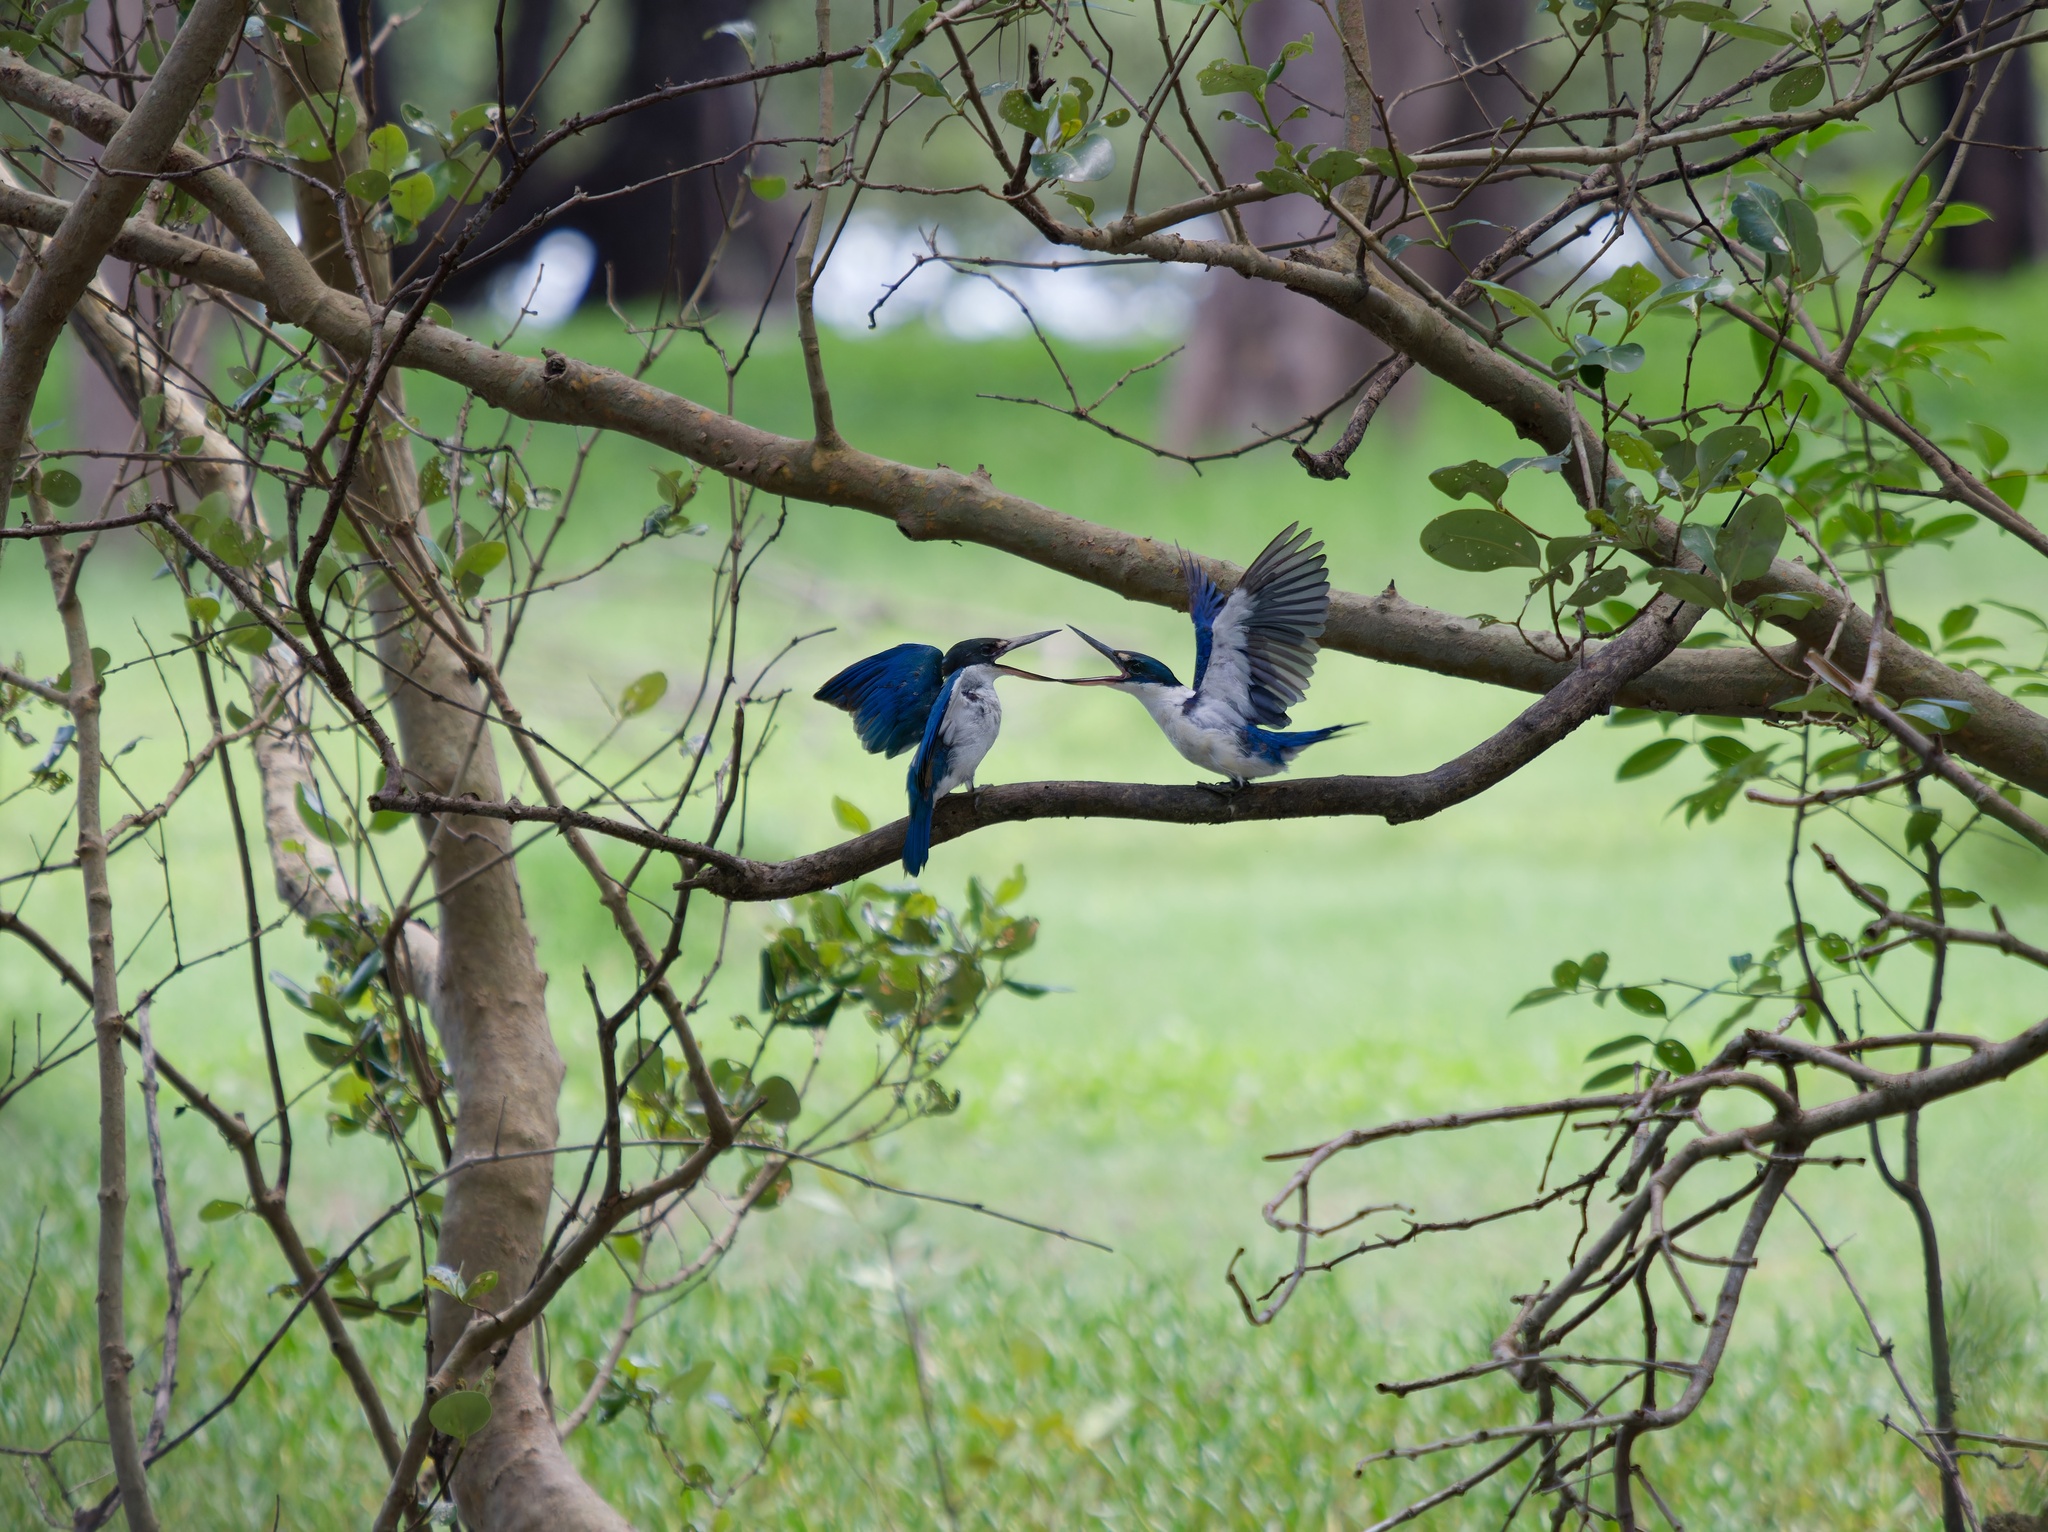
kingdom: Animalia
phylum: Chordata
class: Aves
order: Coraciiformes
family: Alcedinidae
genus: Todiramphus
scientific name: Todiramphus chloris
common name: Collared kingfisher
